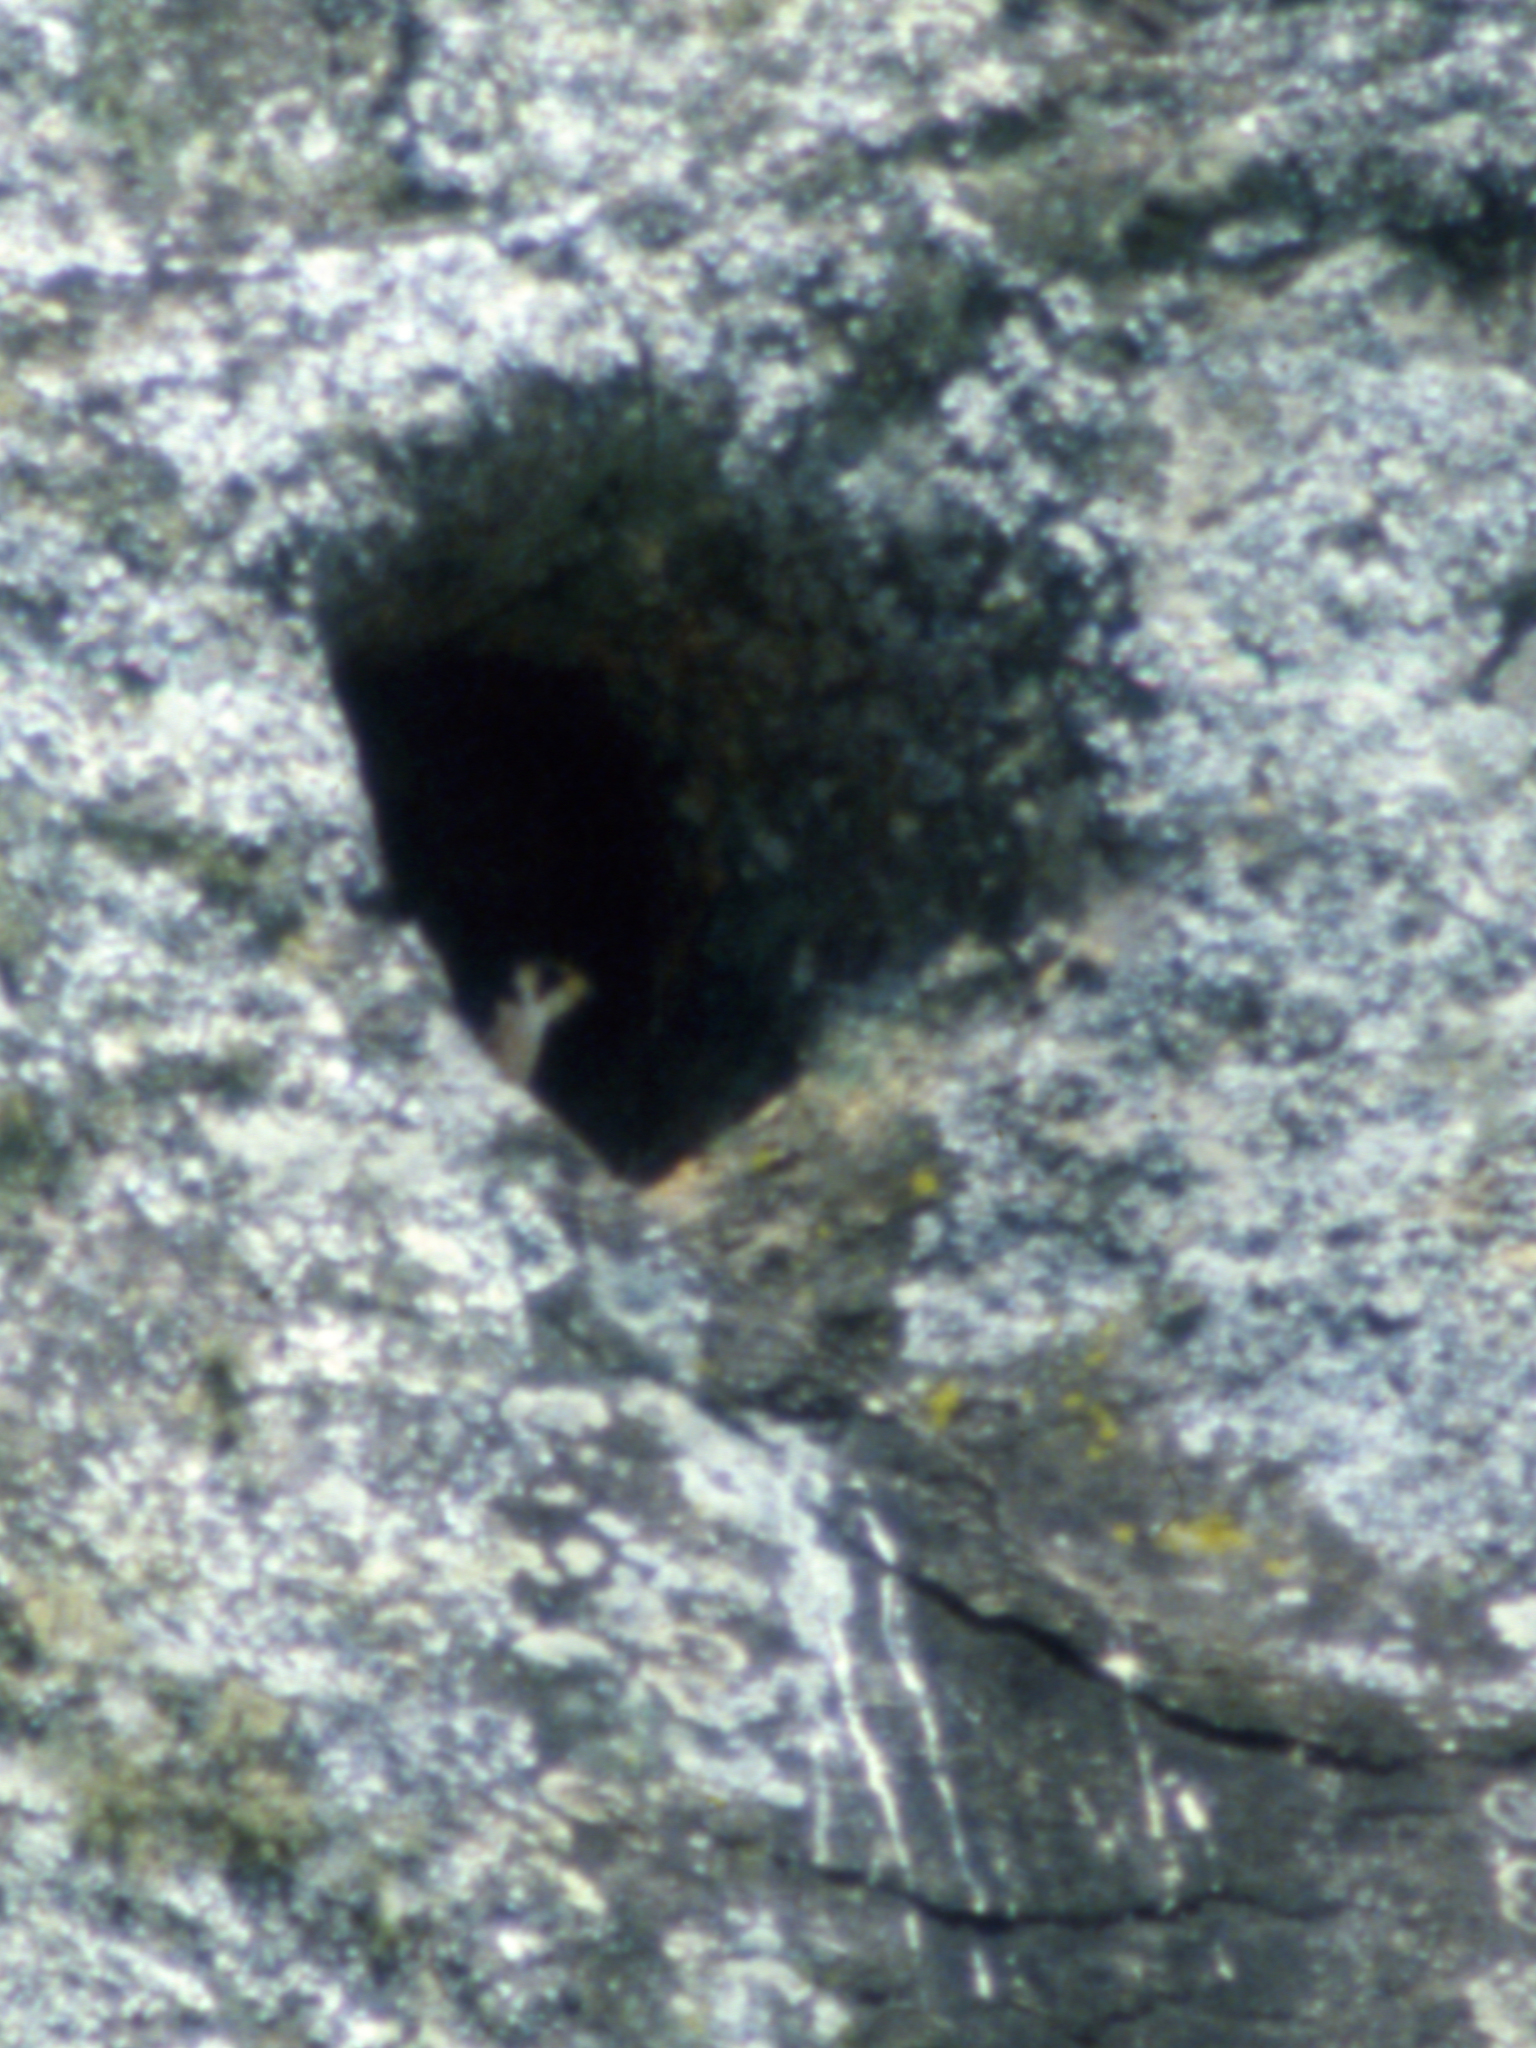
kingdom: Animalia
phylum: Chordata
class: Aves
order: Falconiformes
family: Falconidae
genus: Falco
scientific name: Falco fasciinucha
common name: Taita falcon
